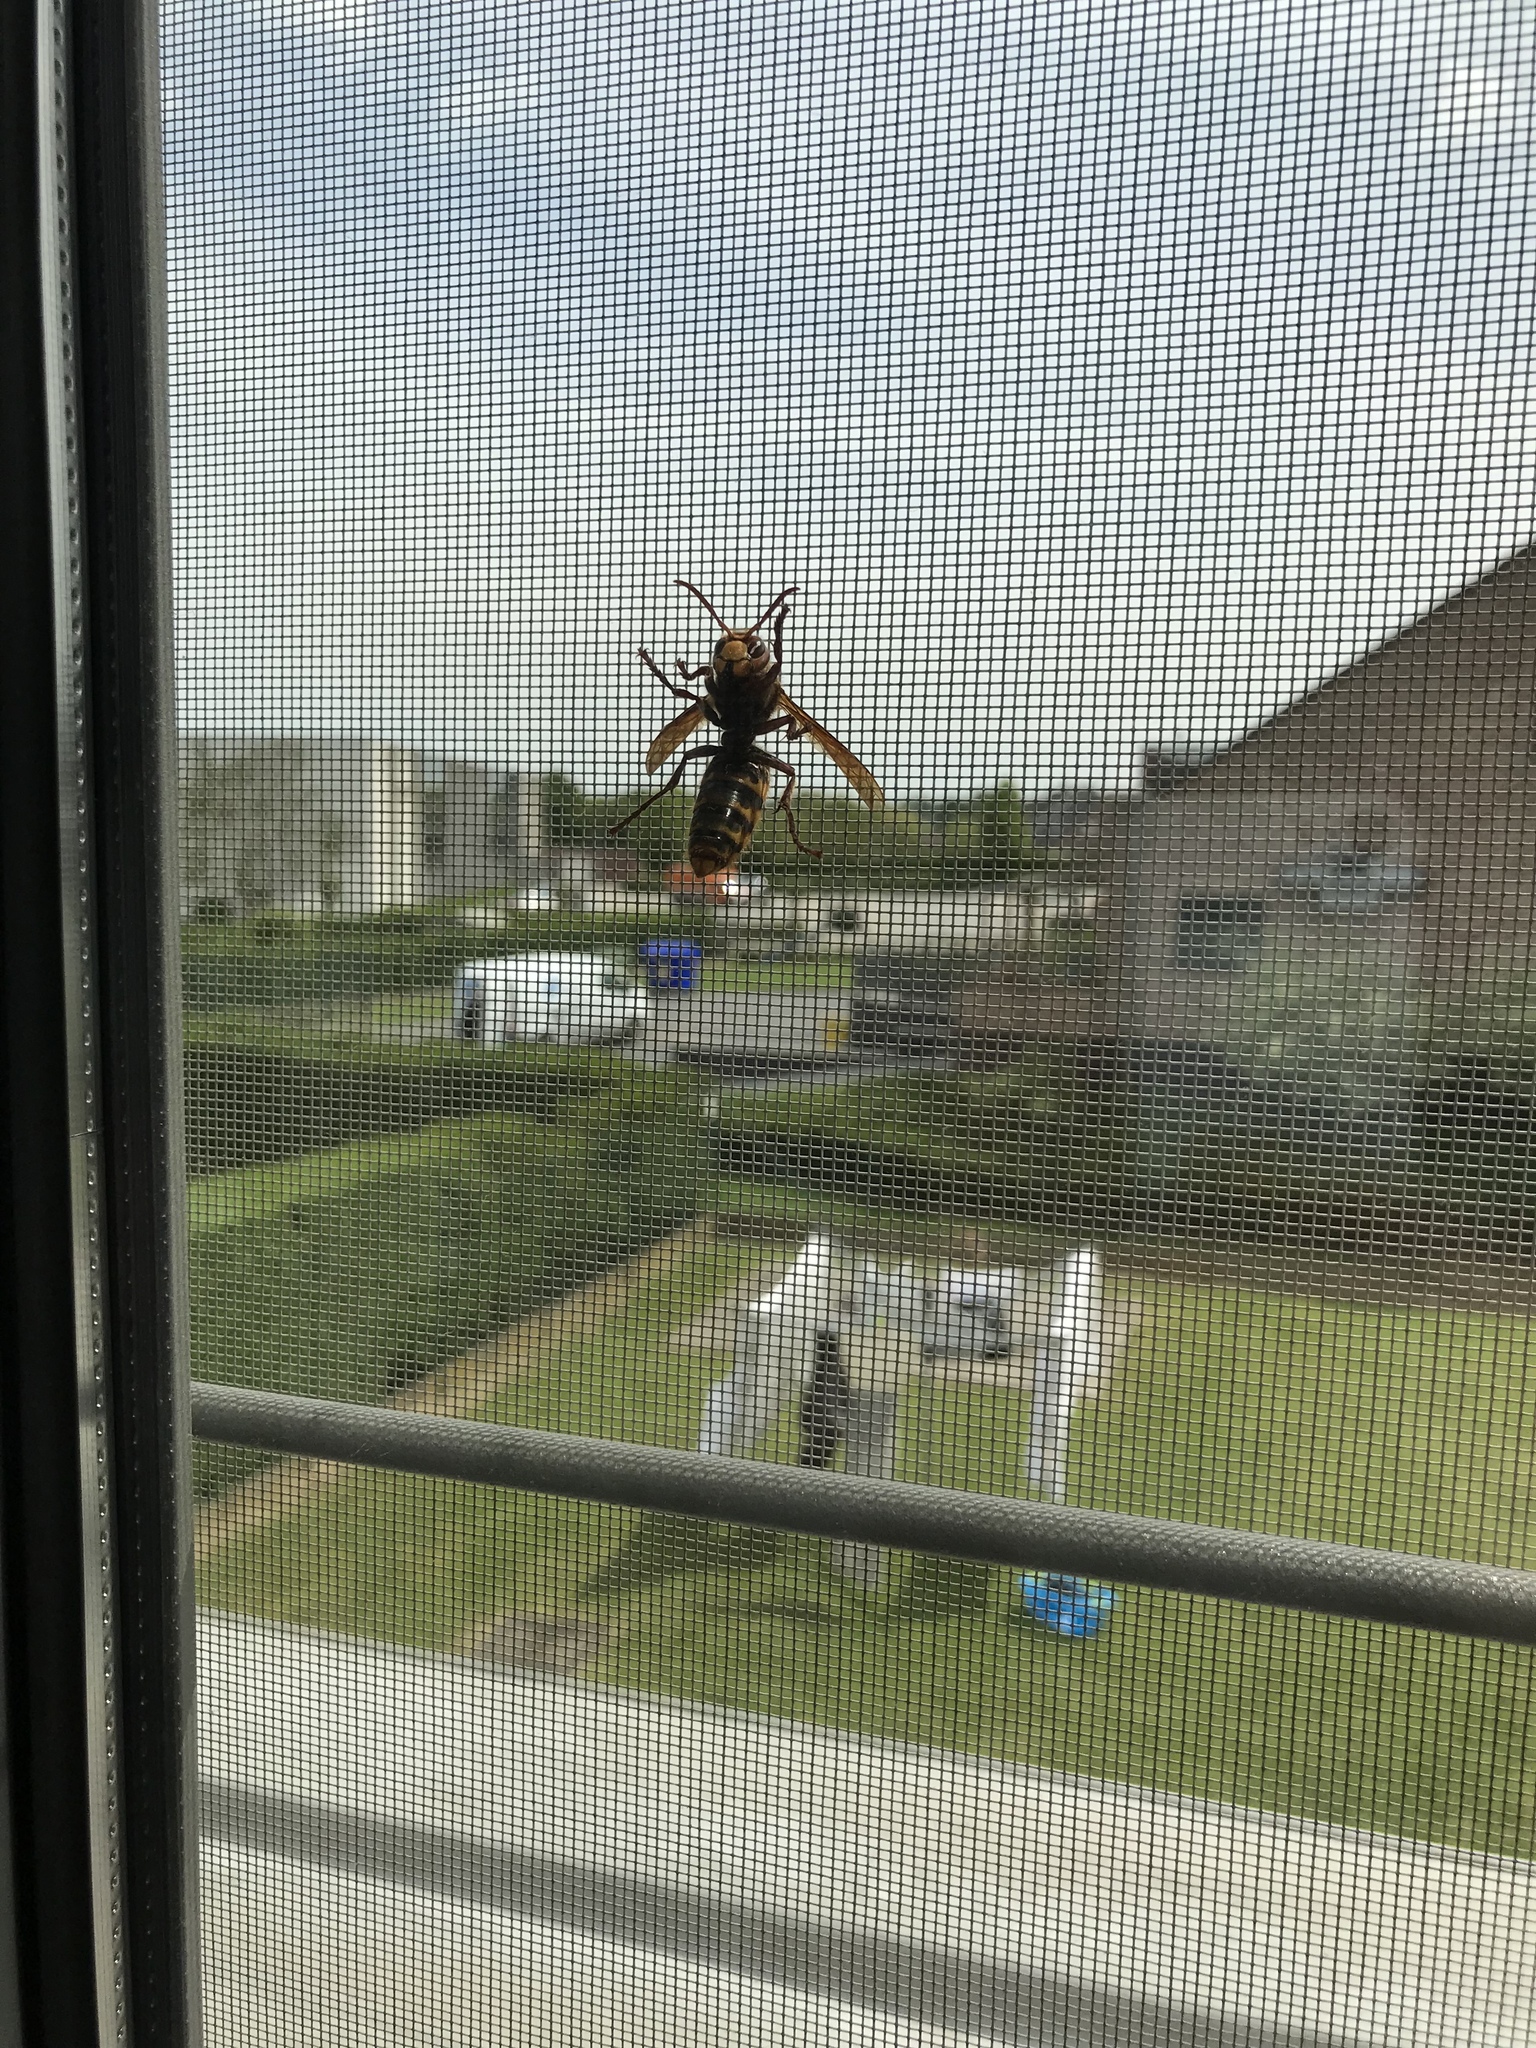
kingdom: Animalia
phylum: Arthropoda
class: Insecta
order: Hymenoptera
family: Vespidae
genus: Vespa
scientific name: Vespa crabro
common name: Hornet
